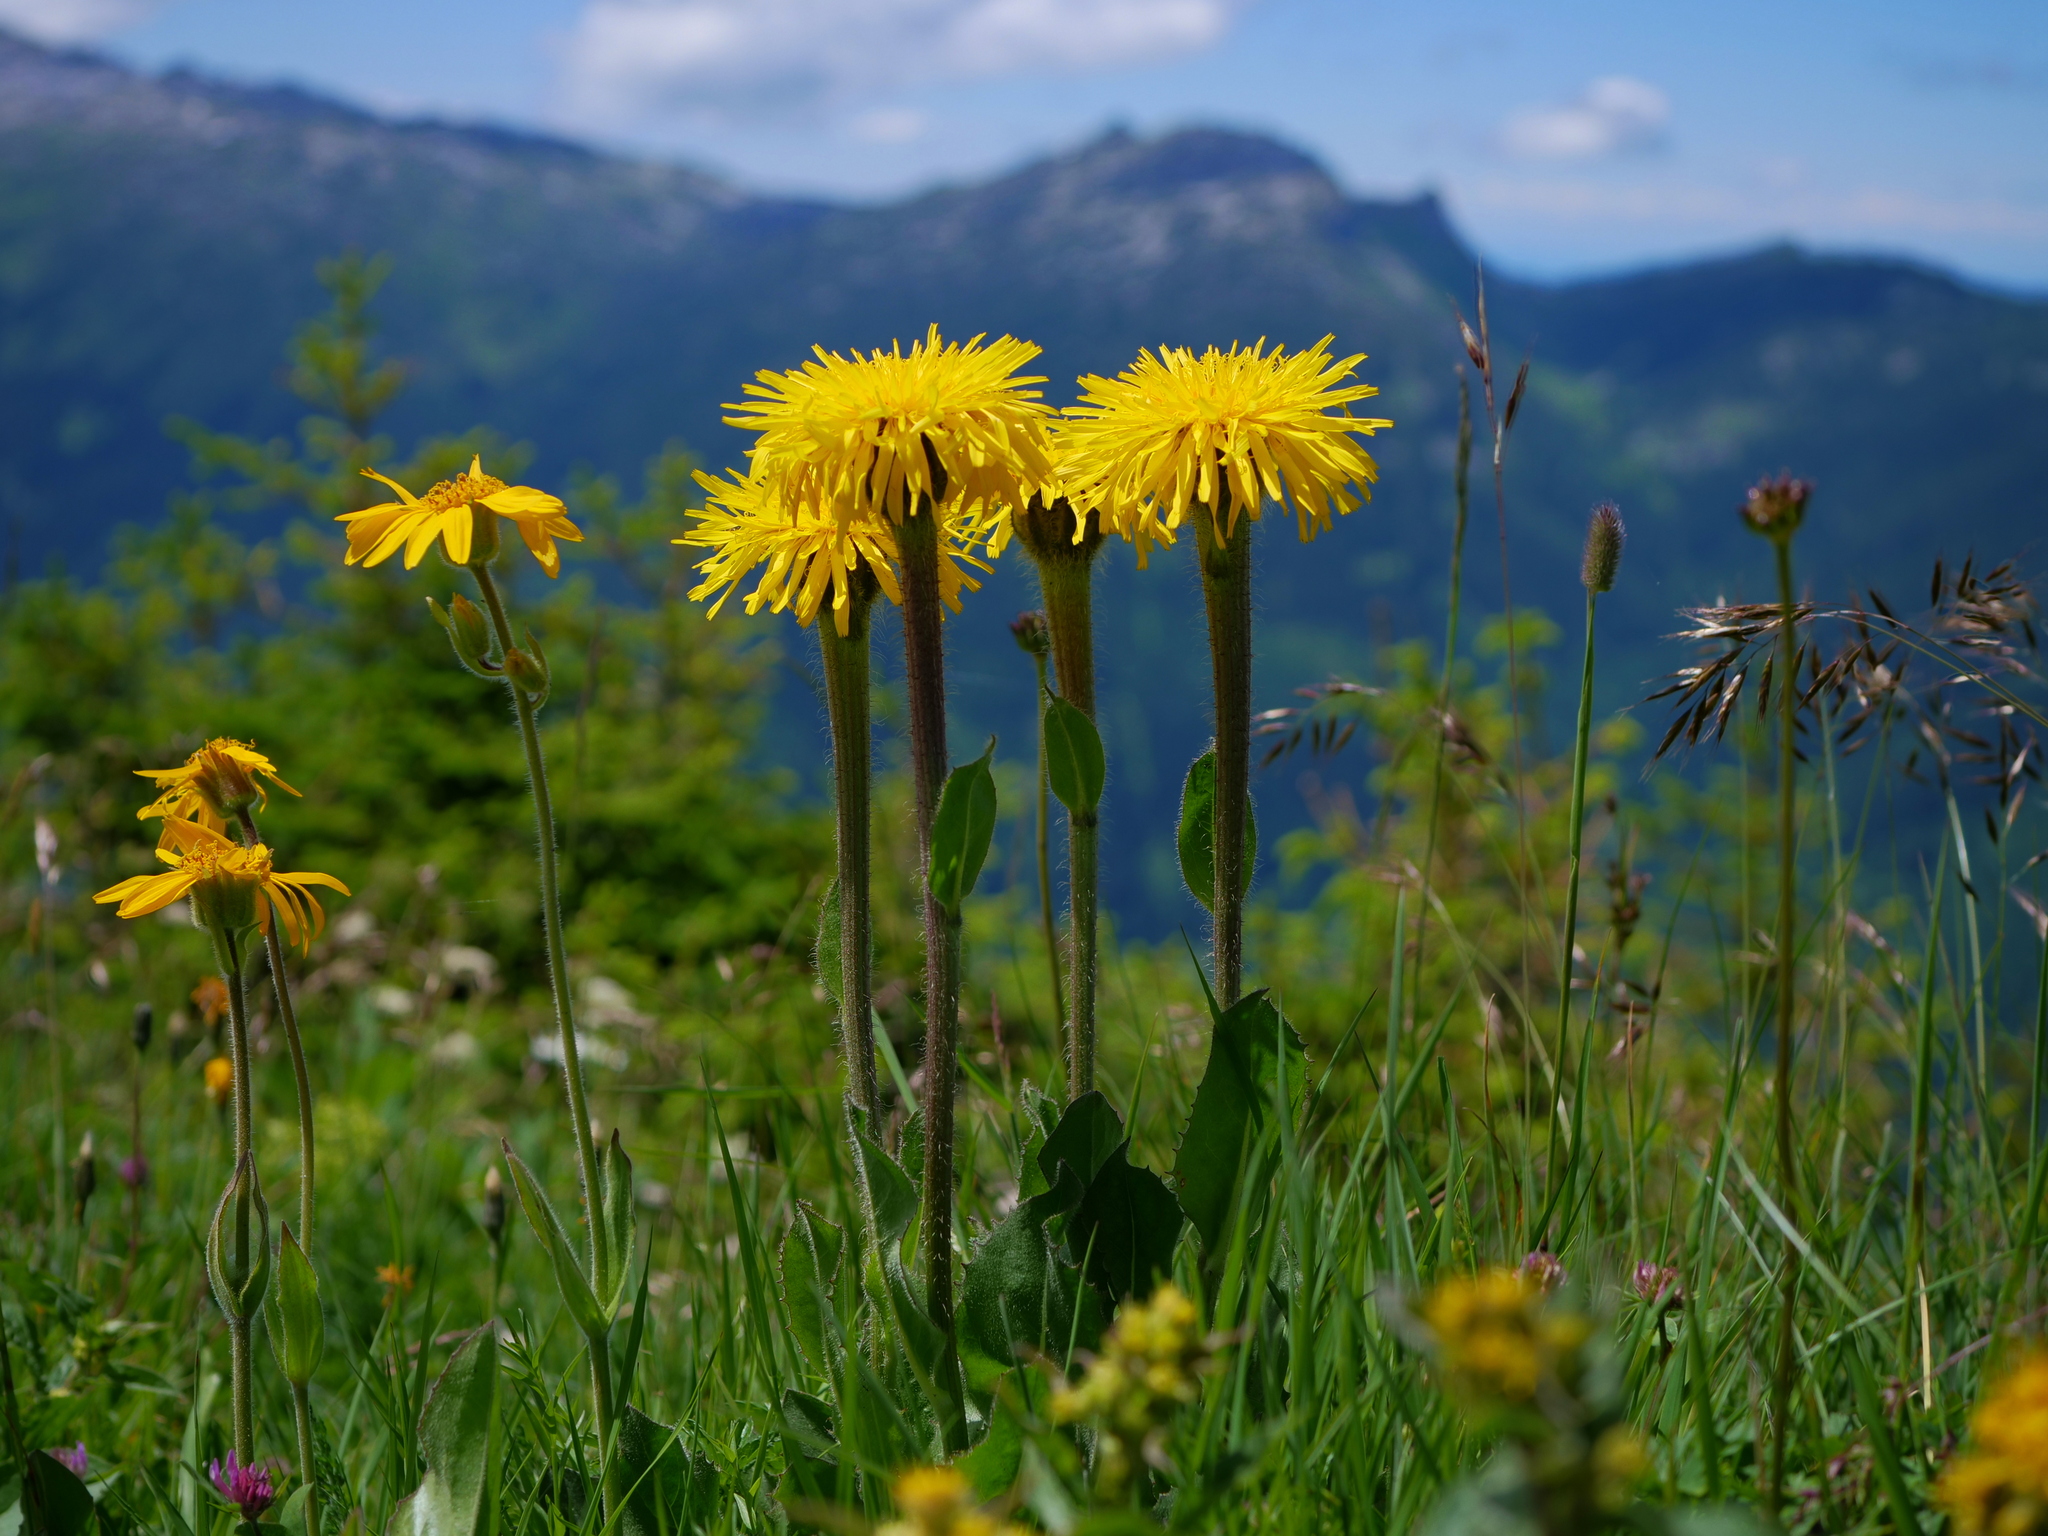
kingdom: Plantae
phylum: Tracheophyta
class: Magnoliopsida
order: Asterales
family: Asteraceae
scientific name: Asteraceae
